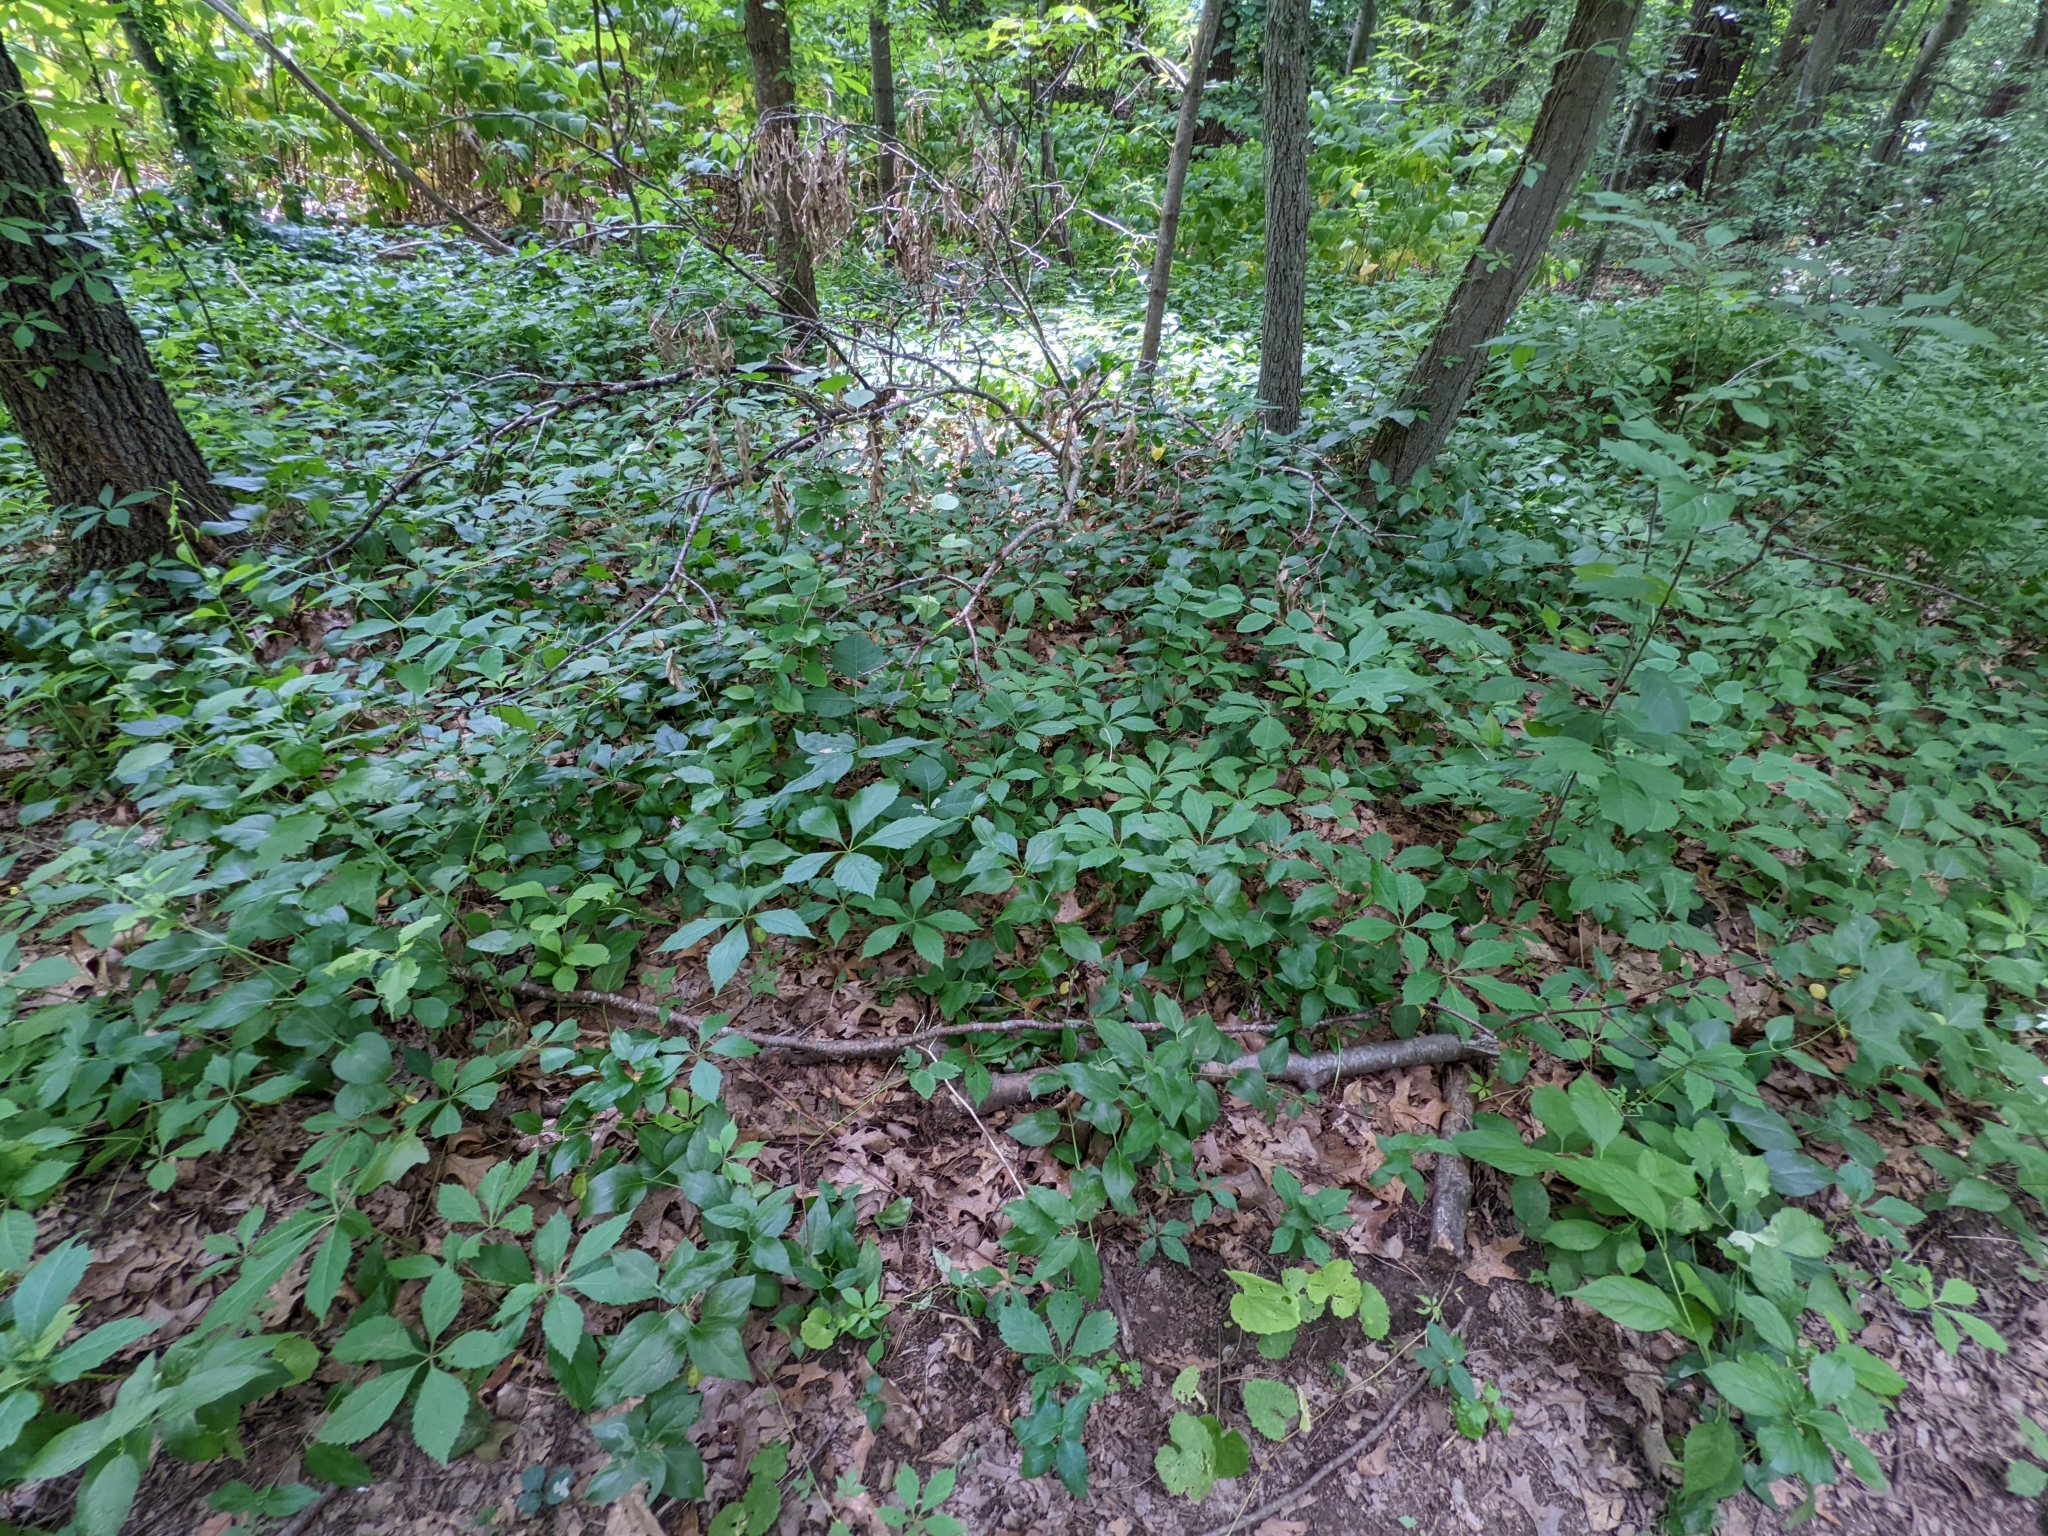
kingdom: Plantae
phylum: Tracheophyta
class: Magnoliopsida
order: Gentianales
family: Apocynaceae
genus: Vincetoxicum
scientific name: Vincetoxicum nigrum
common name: Black swallow-wort
